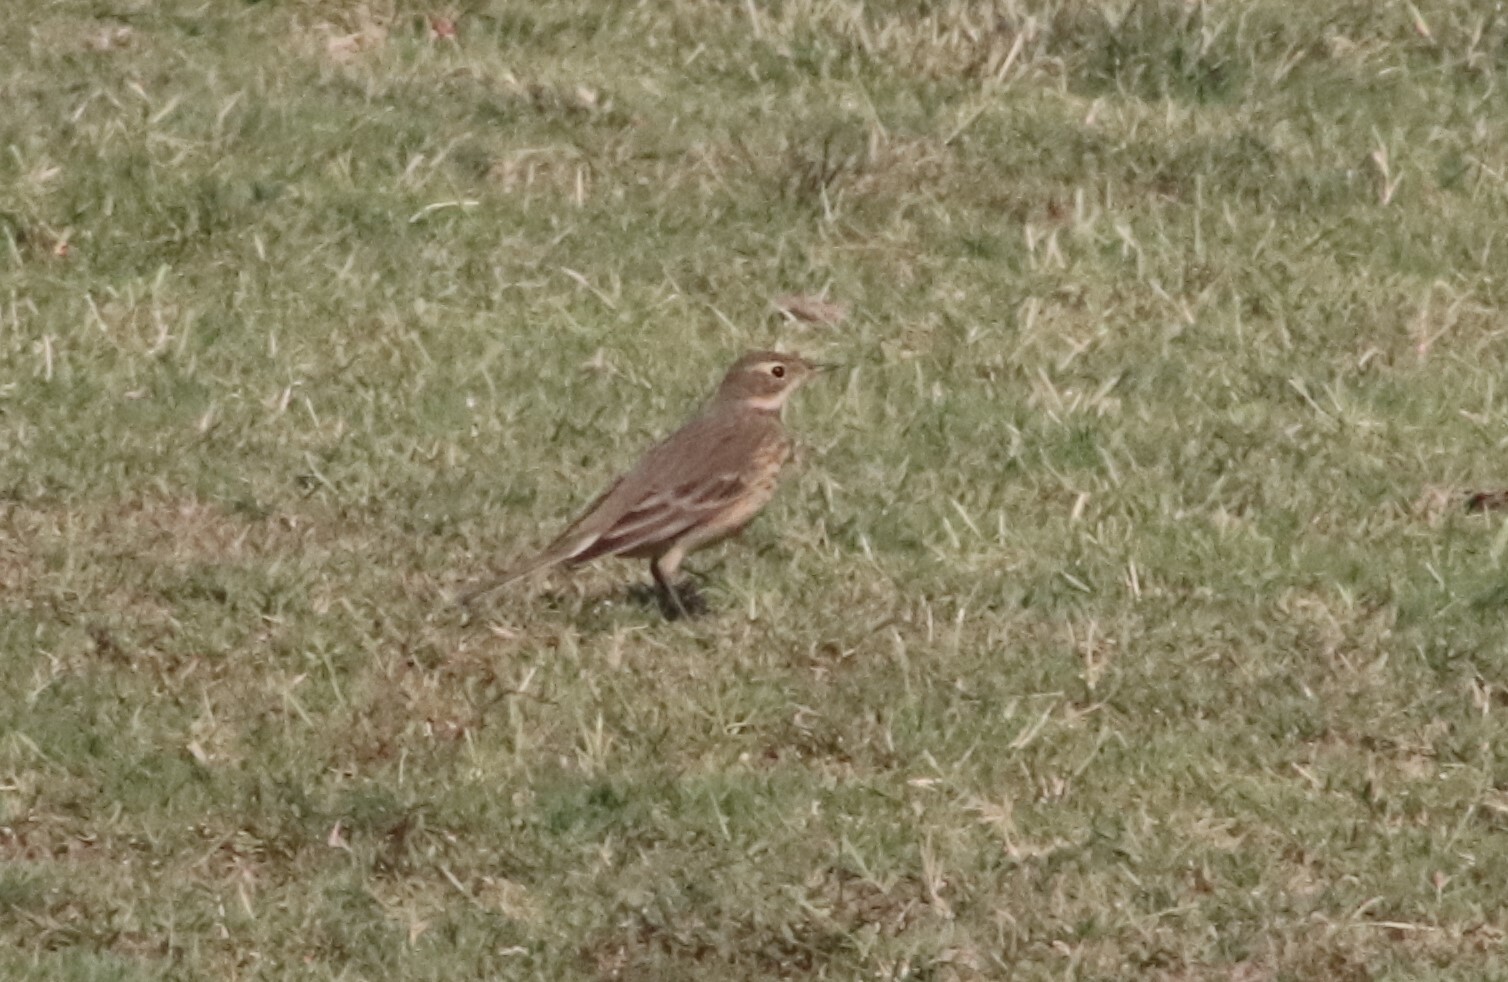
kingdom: Animalia
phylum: Chordata
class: Aves
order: Passeriformes
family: Motacillidae
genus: Anthus
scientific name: Anthus rubescens
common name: Buff-bellied pipit
